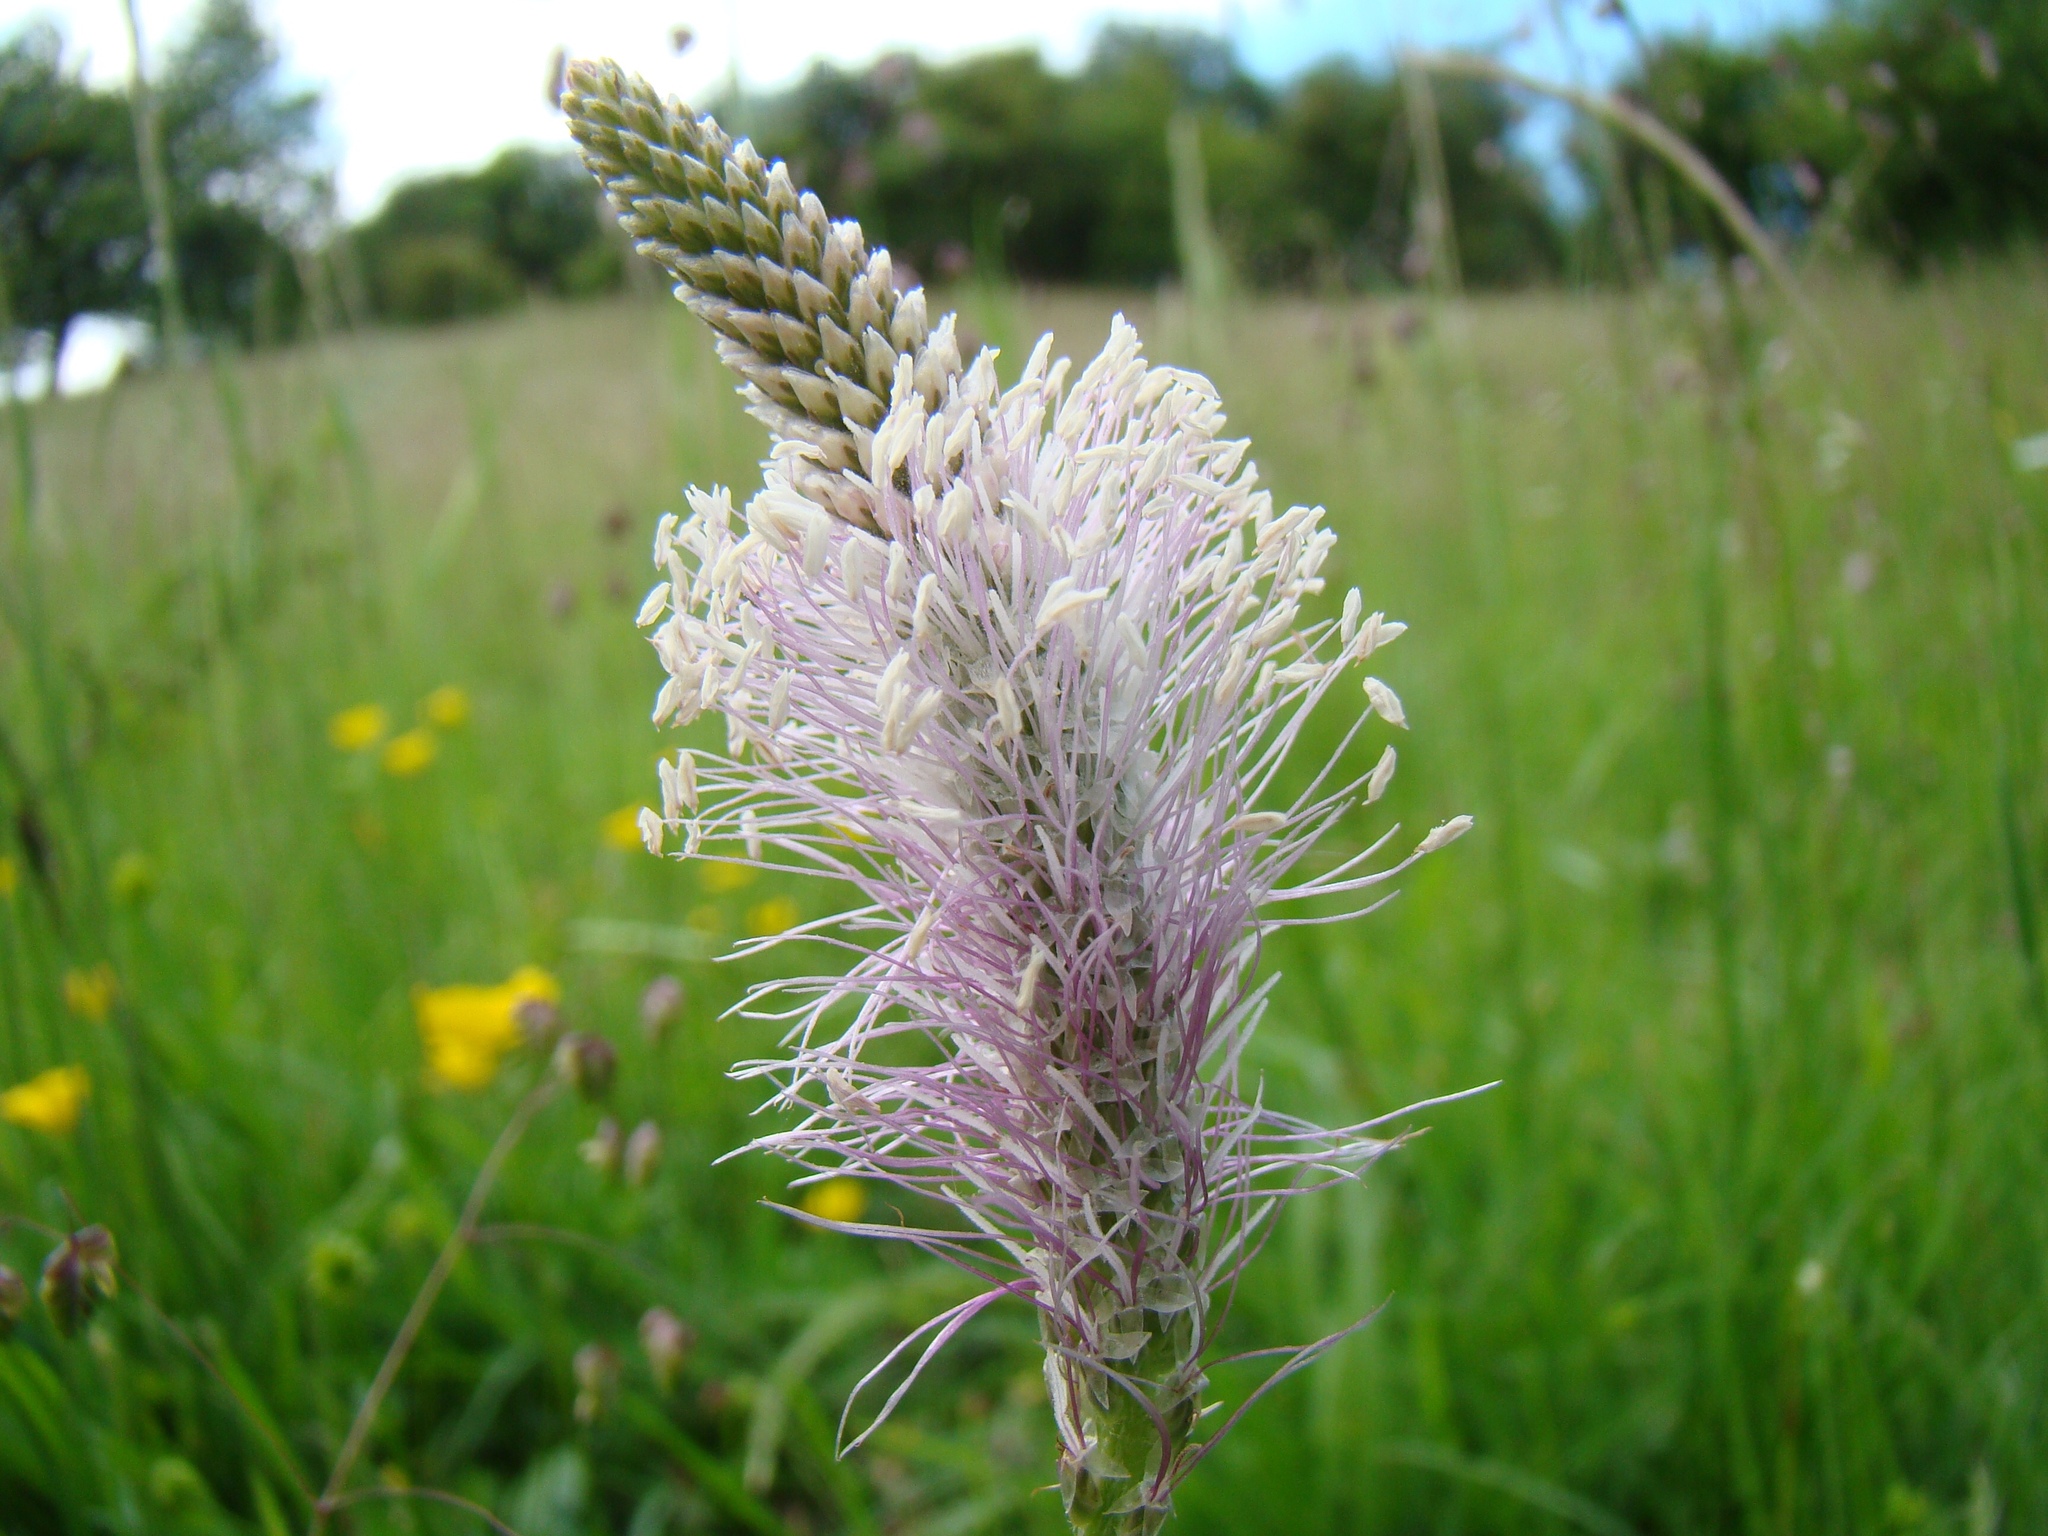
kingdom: Plantae
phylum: Tracheophyta
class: Magnoliopsida
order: Lamiales
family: Plantaginaceae
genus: Plantago
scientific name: Plantago media
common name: Hoary plantain
